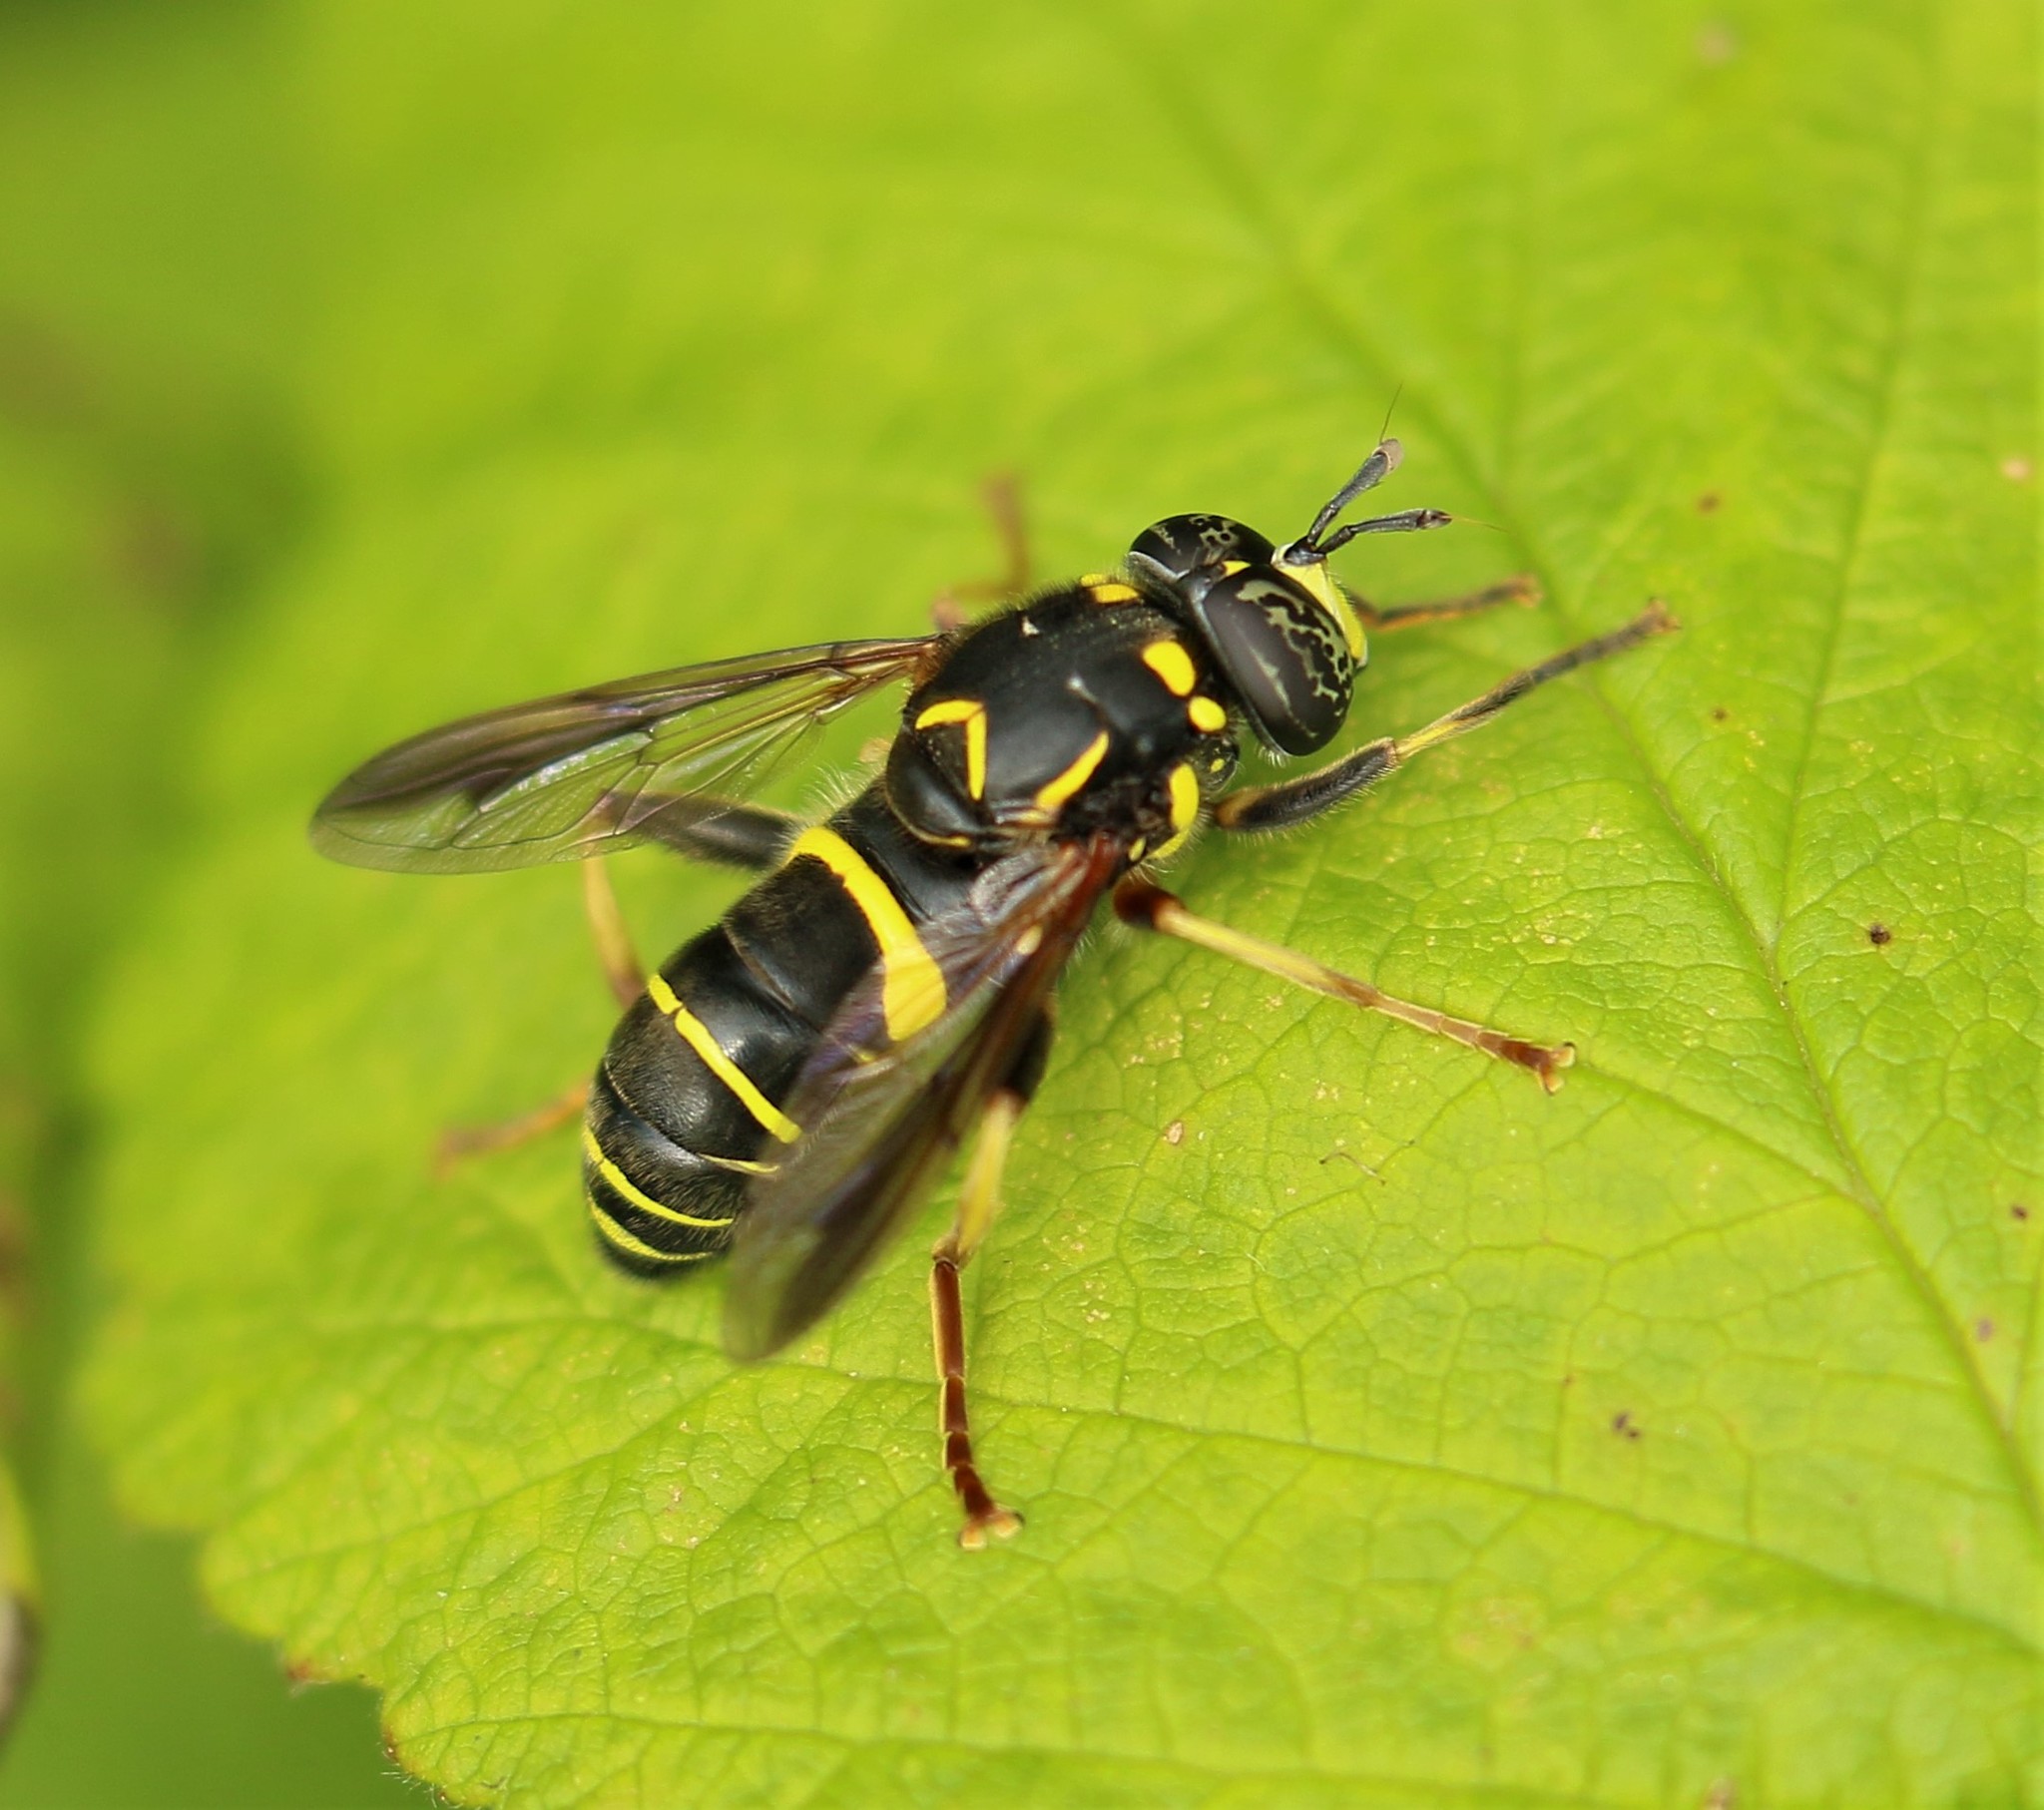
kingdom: Animalia
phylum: Arthropoda
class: Insecta
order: Diptera
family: Syrphidae
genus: Spilomyia
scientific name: Spilomyia sayi
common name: Four-lined hornet fly
